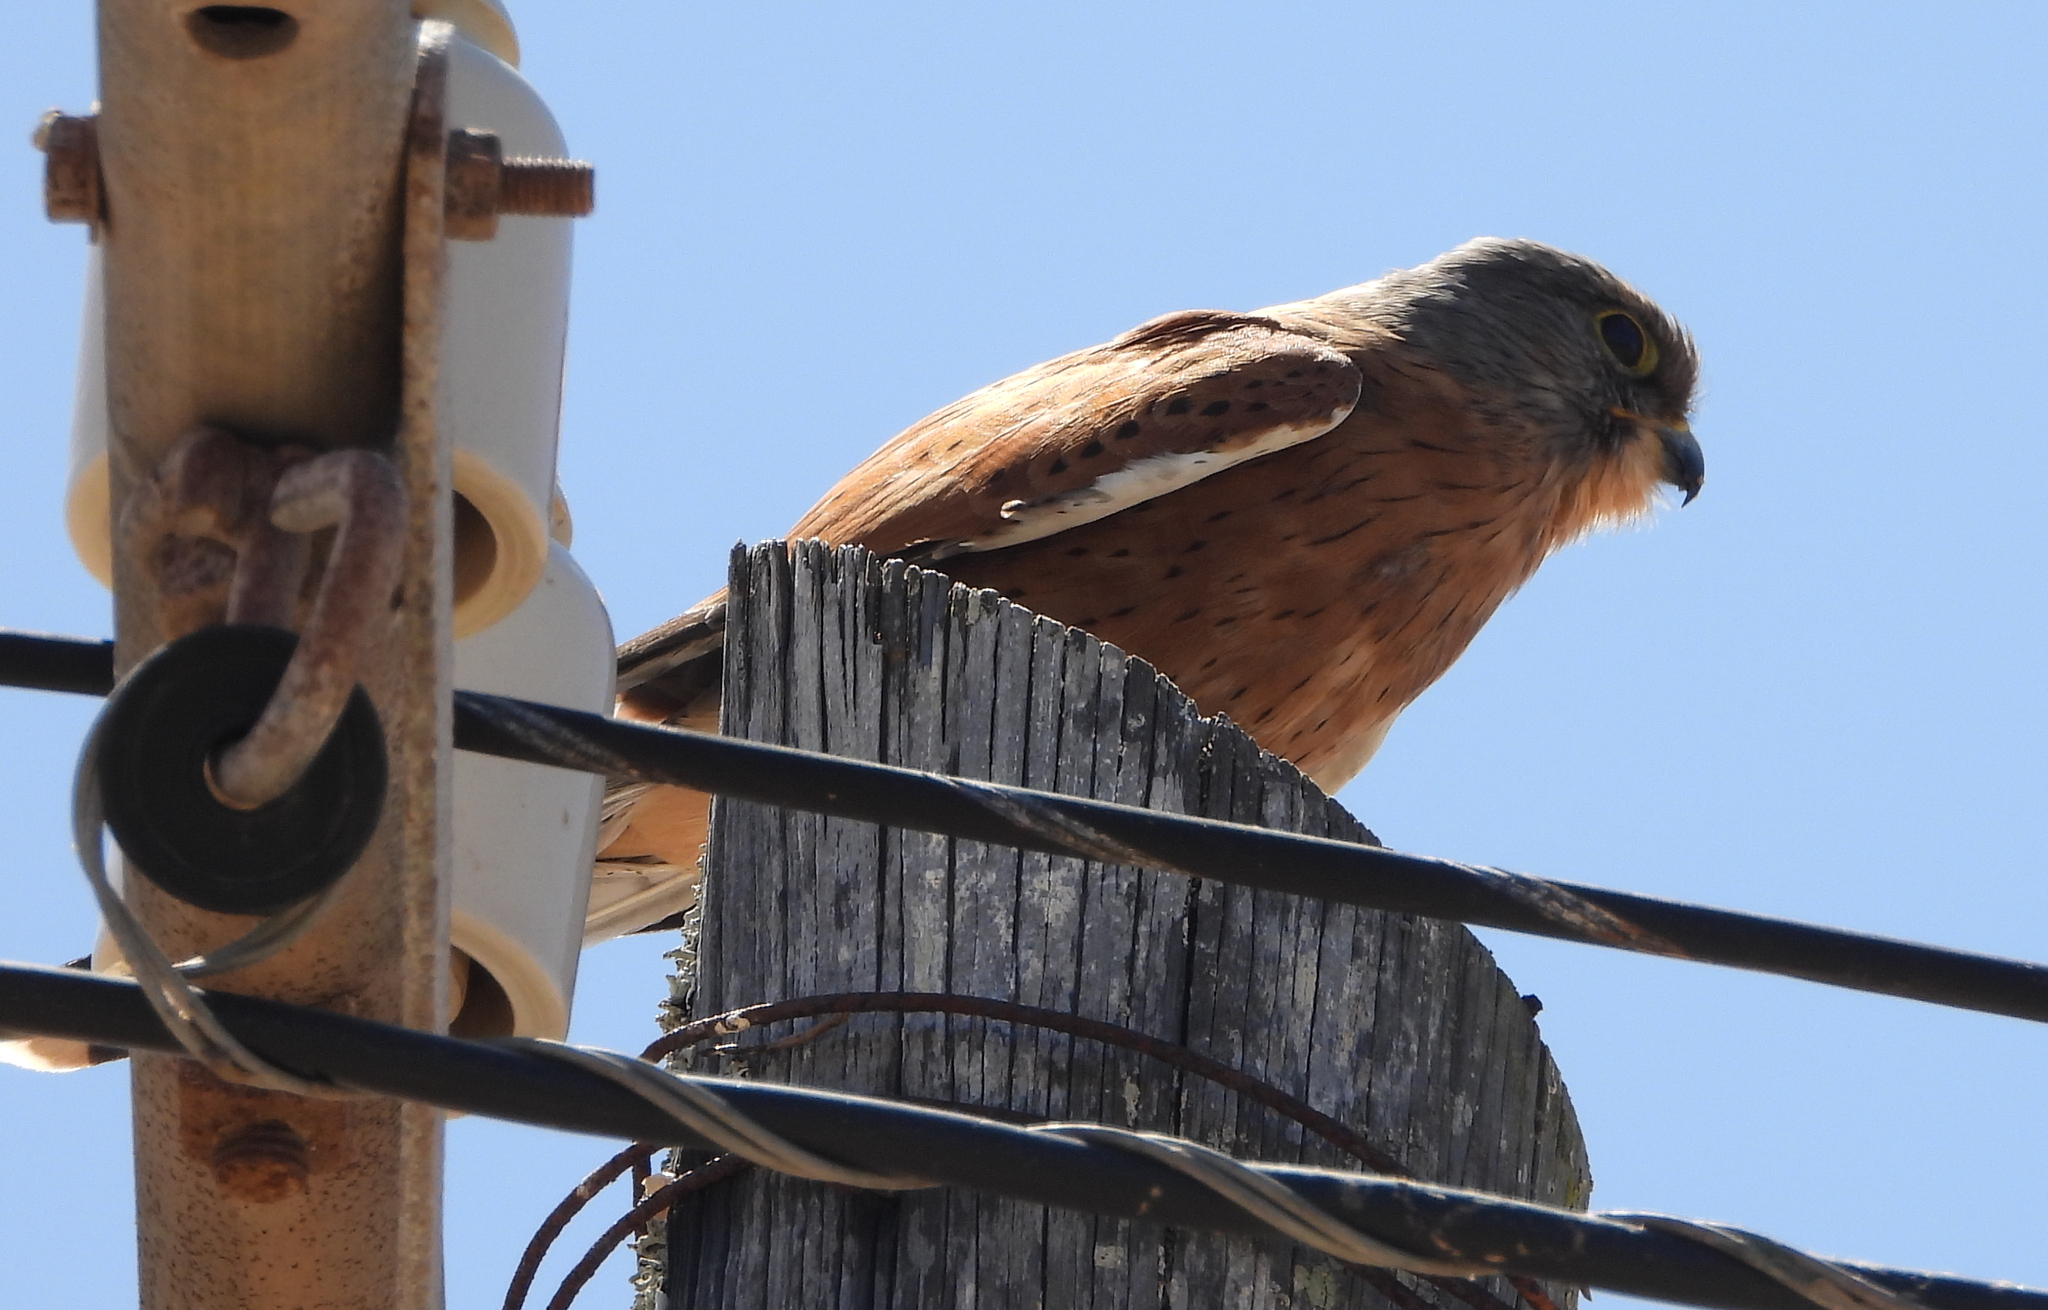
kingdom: Animalia
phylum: Chordata
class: Aves
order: Falconiformes
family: Falconidae
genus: Falco
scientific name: Falco rupicolus
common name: Rock kestrel
